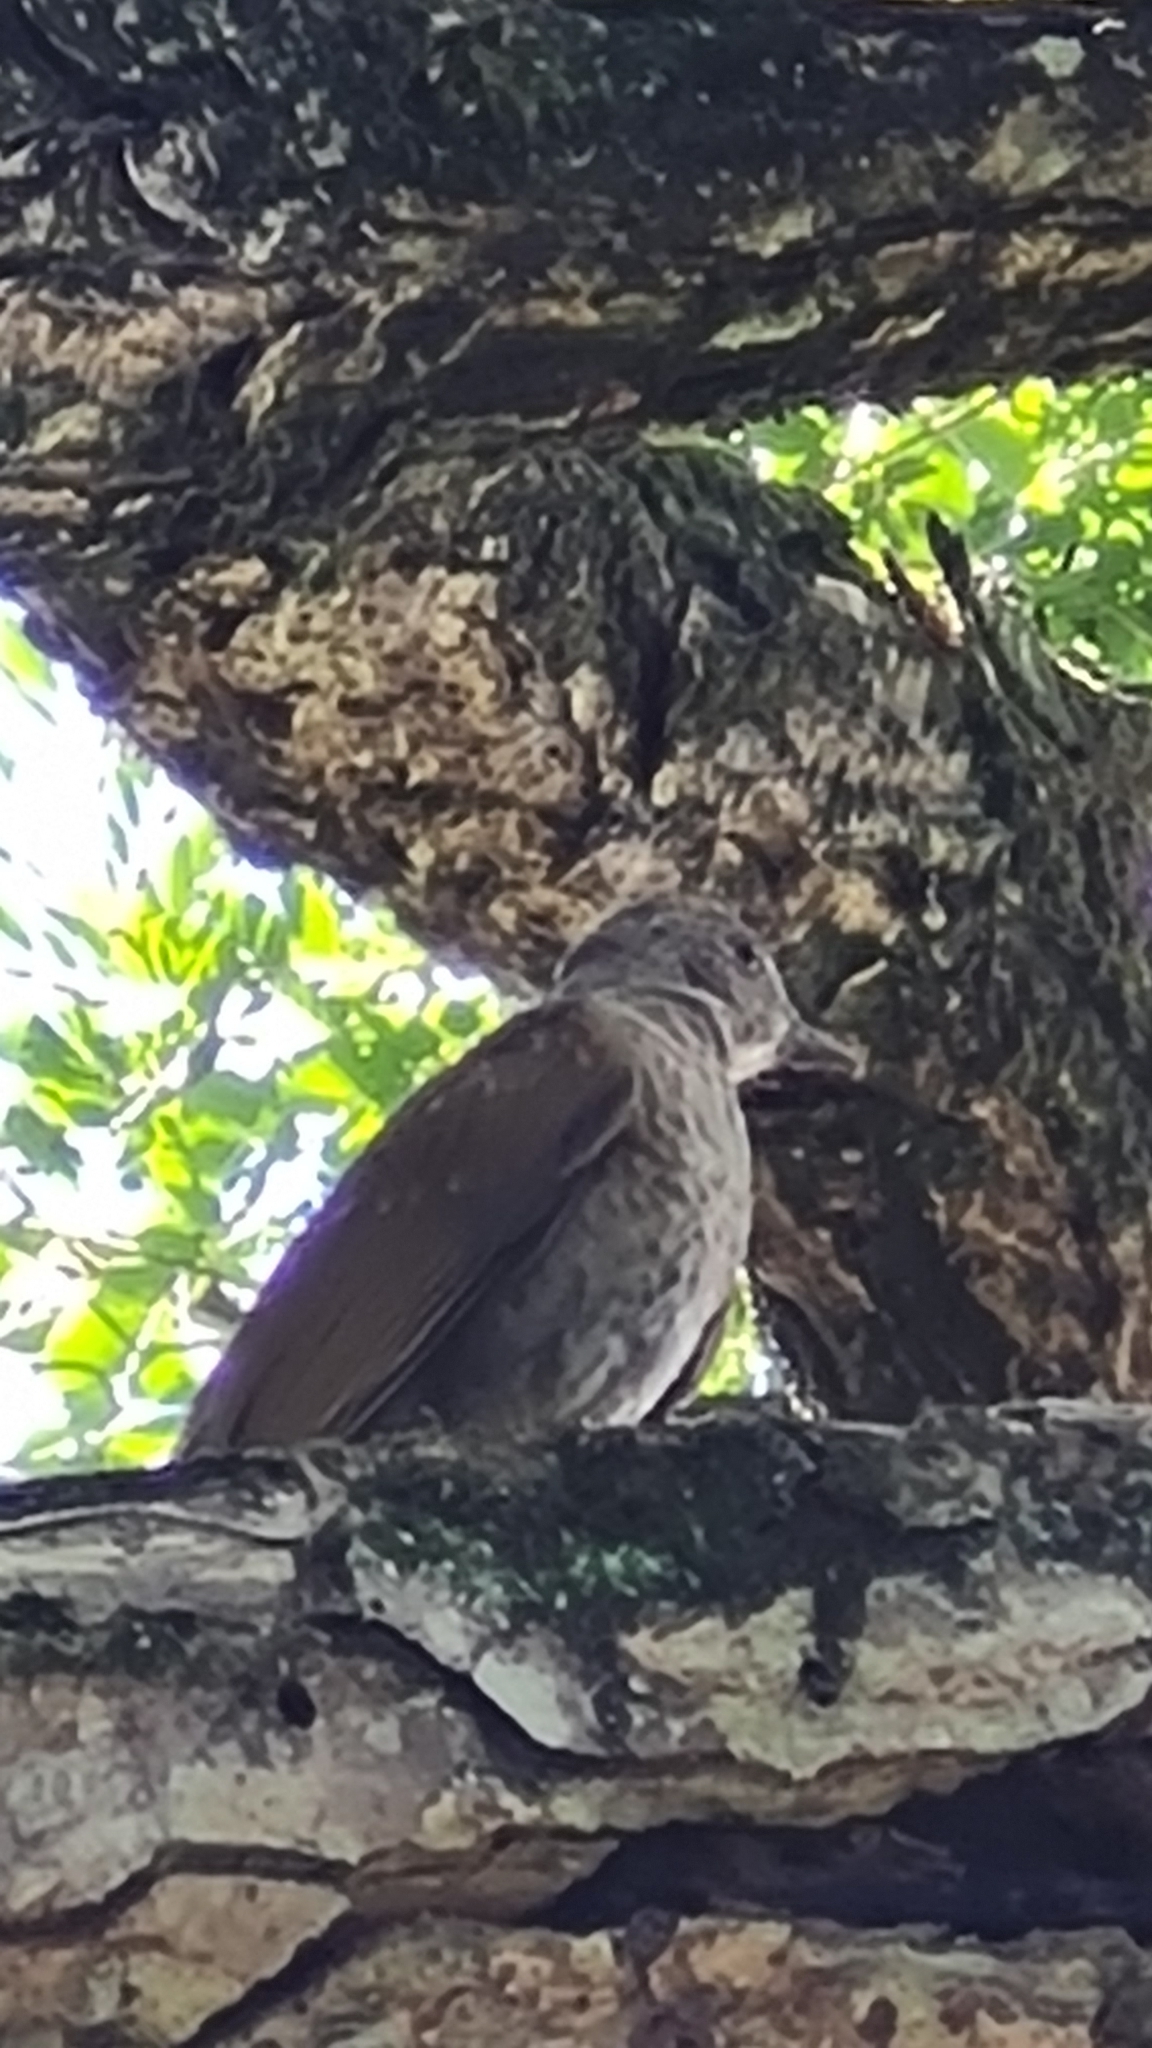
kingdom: Animalia
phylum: Chordata
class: Aves
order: Passeriformes
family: Turdidae
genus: Turdus
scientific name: Turdus leucomelas
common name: Pale-breasted thrush
